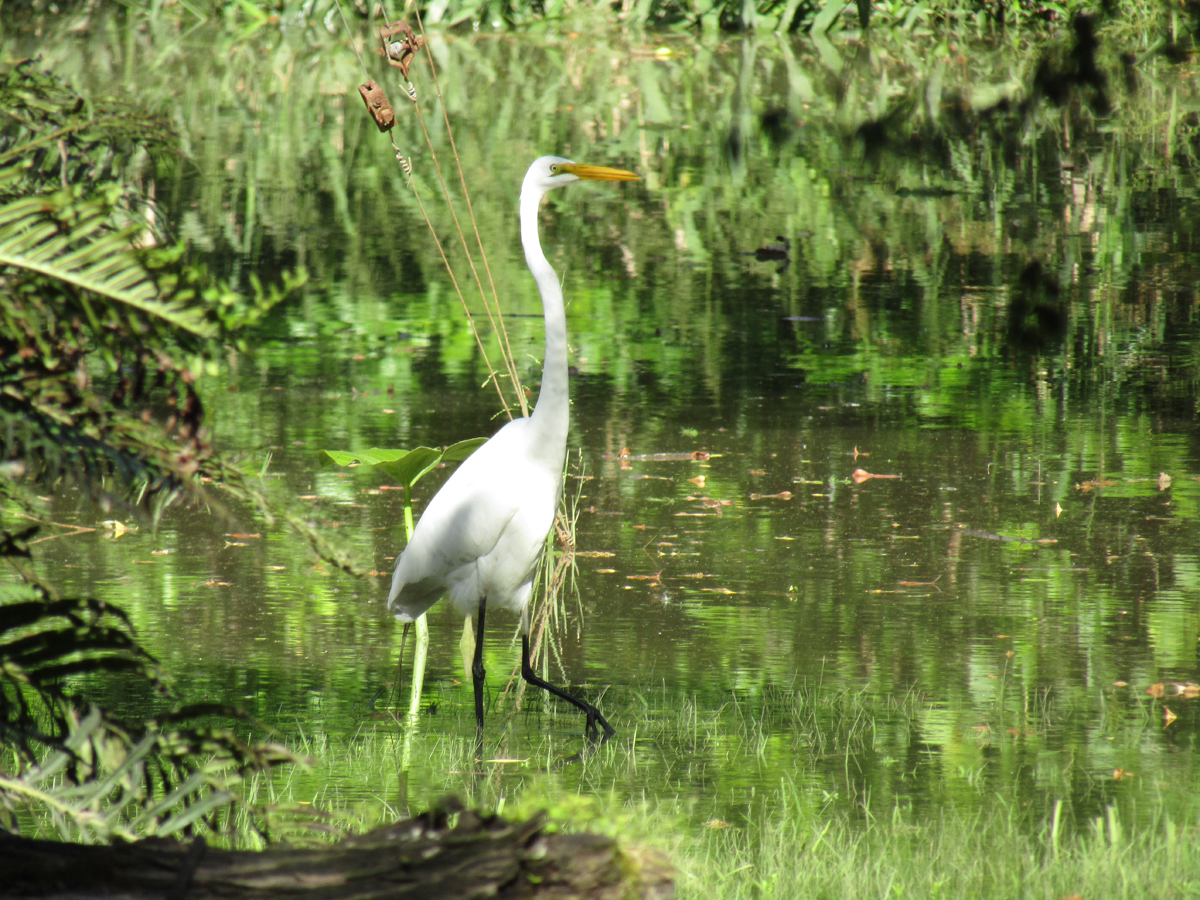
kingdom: Animalia
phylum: Chordata
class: Aves
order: Pelecaniformes
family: Ardeidae
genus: Ardea
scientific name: Ardea alba
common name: Great egret
